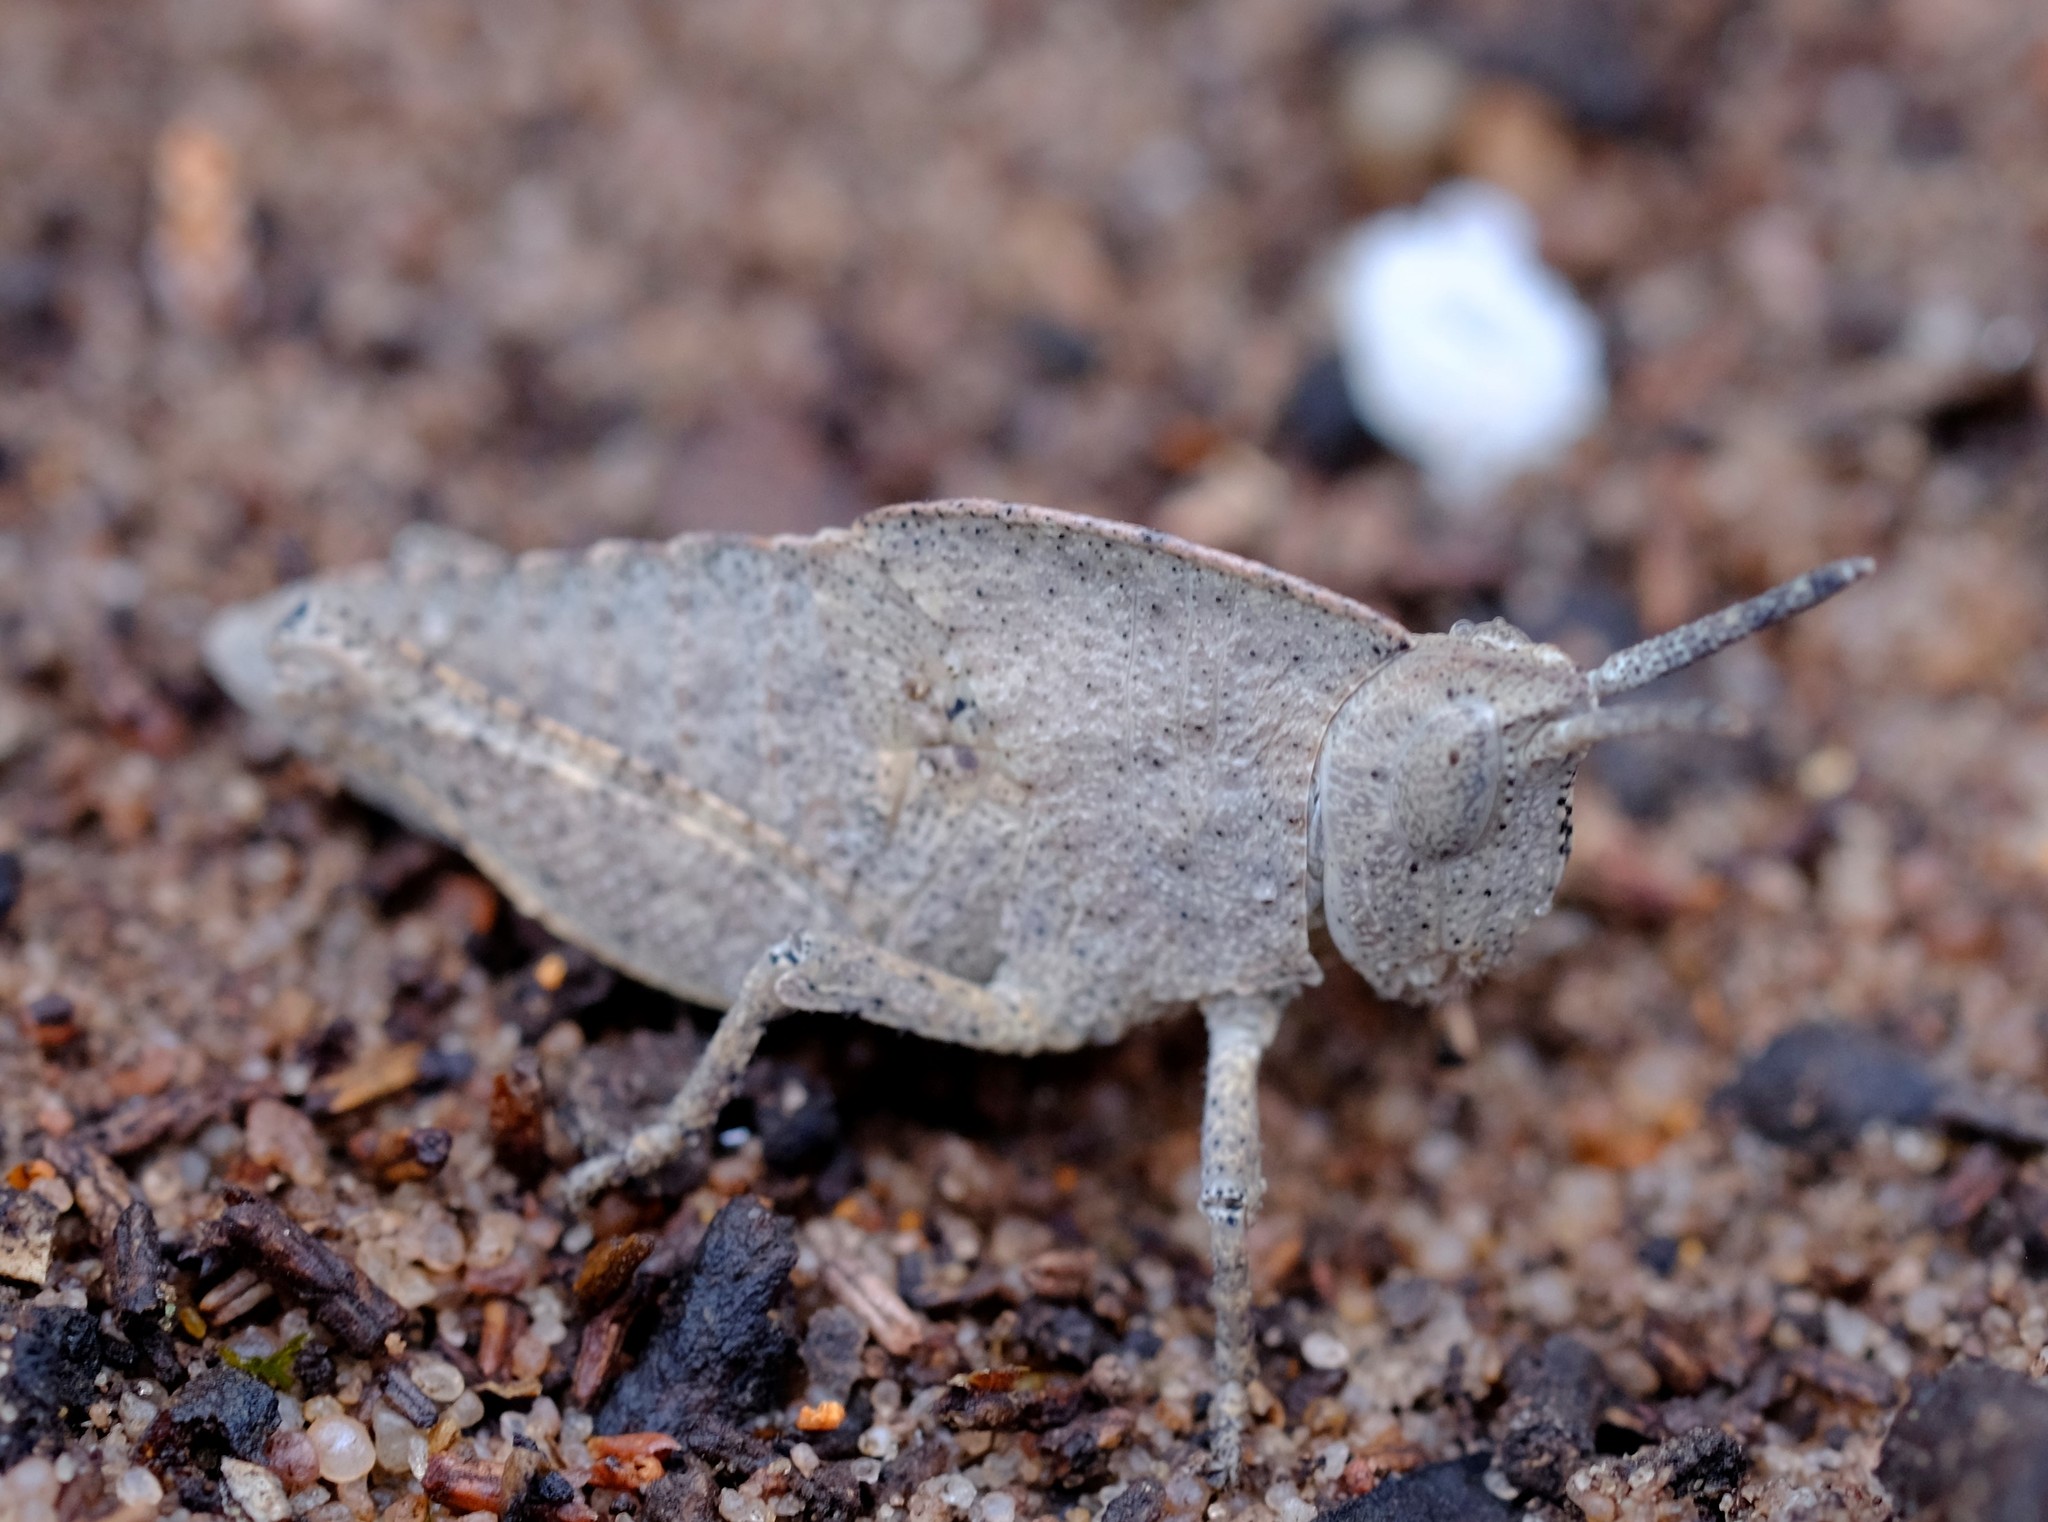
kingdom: Animalia
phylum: Arthropoda
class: Insecta
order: Orthoptera
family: Acrididae
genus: Goniaea
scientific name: Goniaea australasiae
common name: Gumleaf grasshopper
